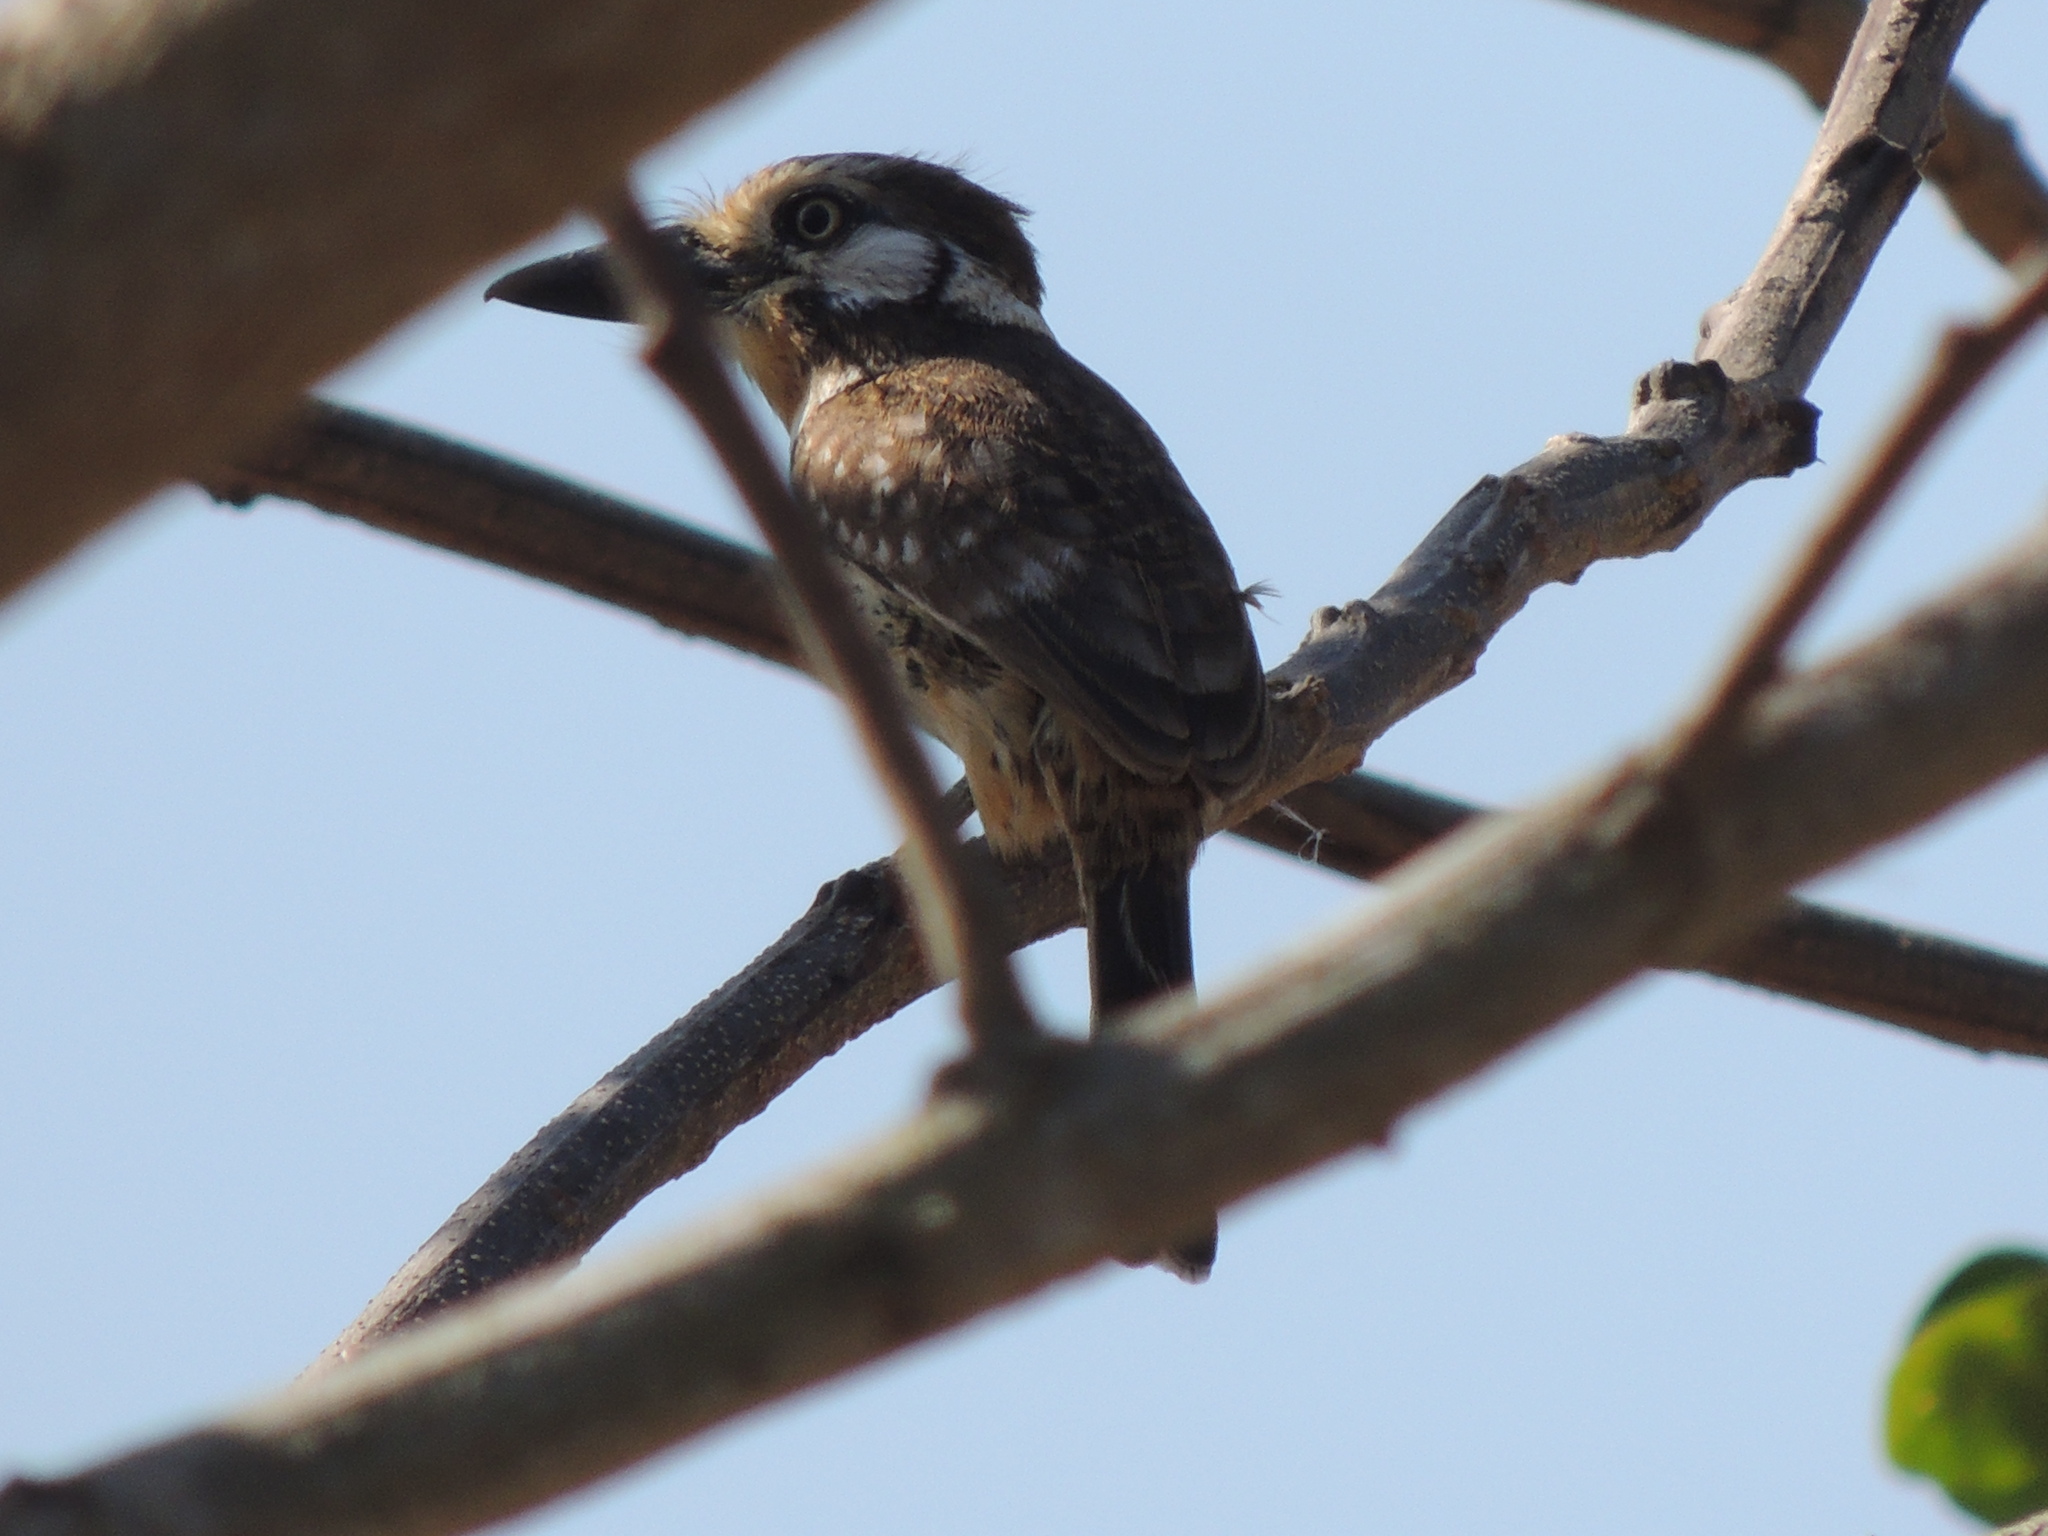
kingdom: Animalia
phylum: Chordata
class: Aves
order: Piciformes
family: Bucconidae
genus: Hypnelus
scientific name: Hypnelus ruficollis
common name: Russet-throated puffbird
